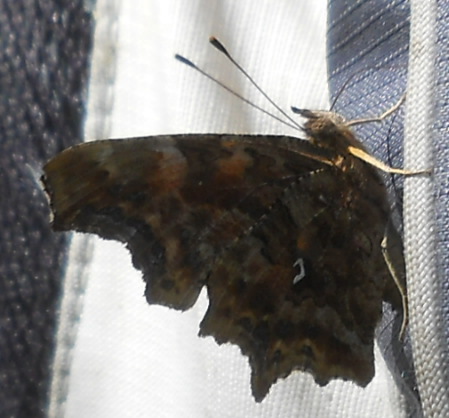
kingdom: Animalia
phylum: Arthropoda
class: Insecta
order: Lepidoptera
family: Nymphalidae
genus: Polygonia
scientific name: Polygonia c-album
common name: Comma
